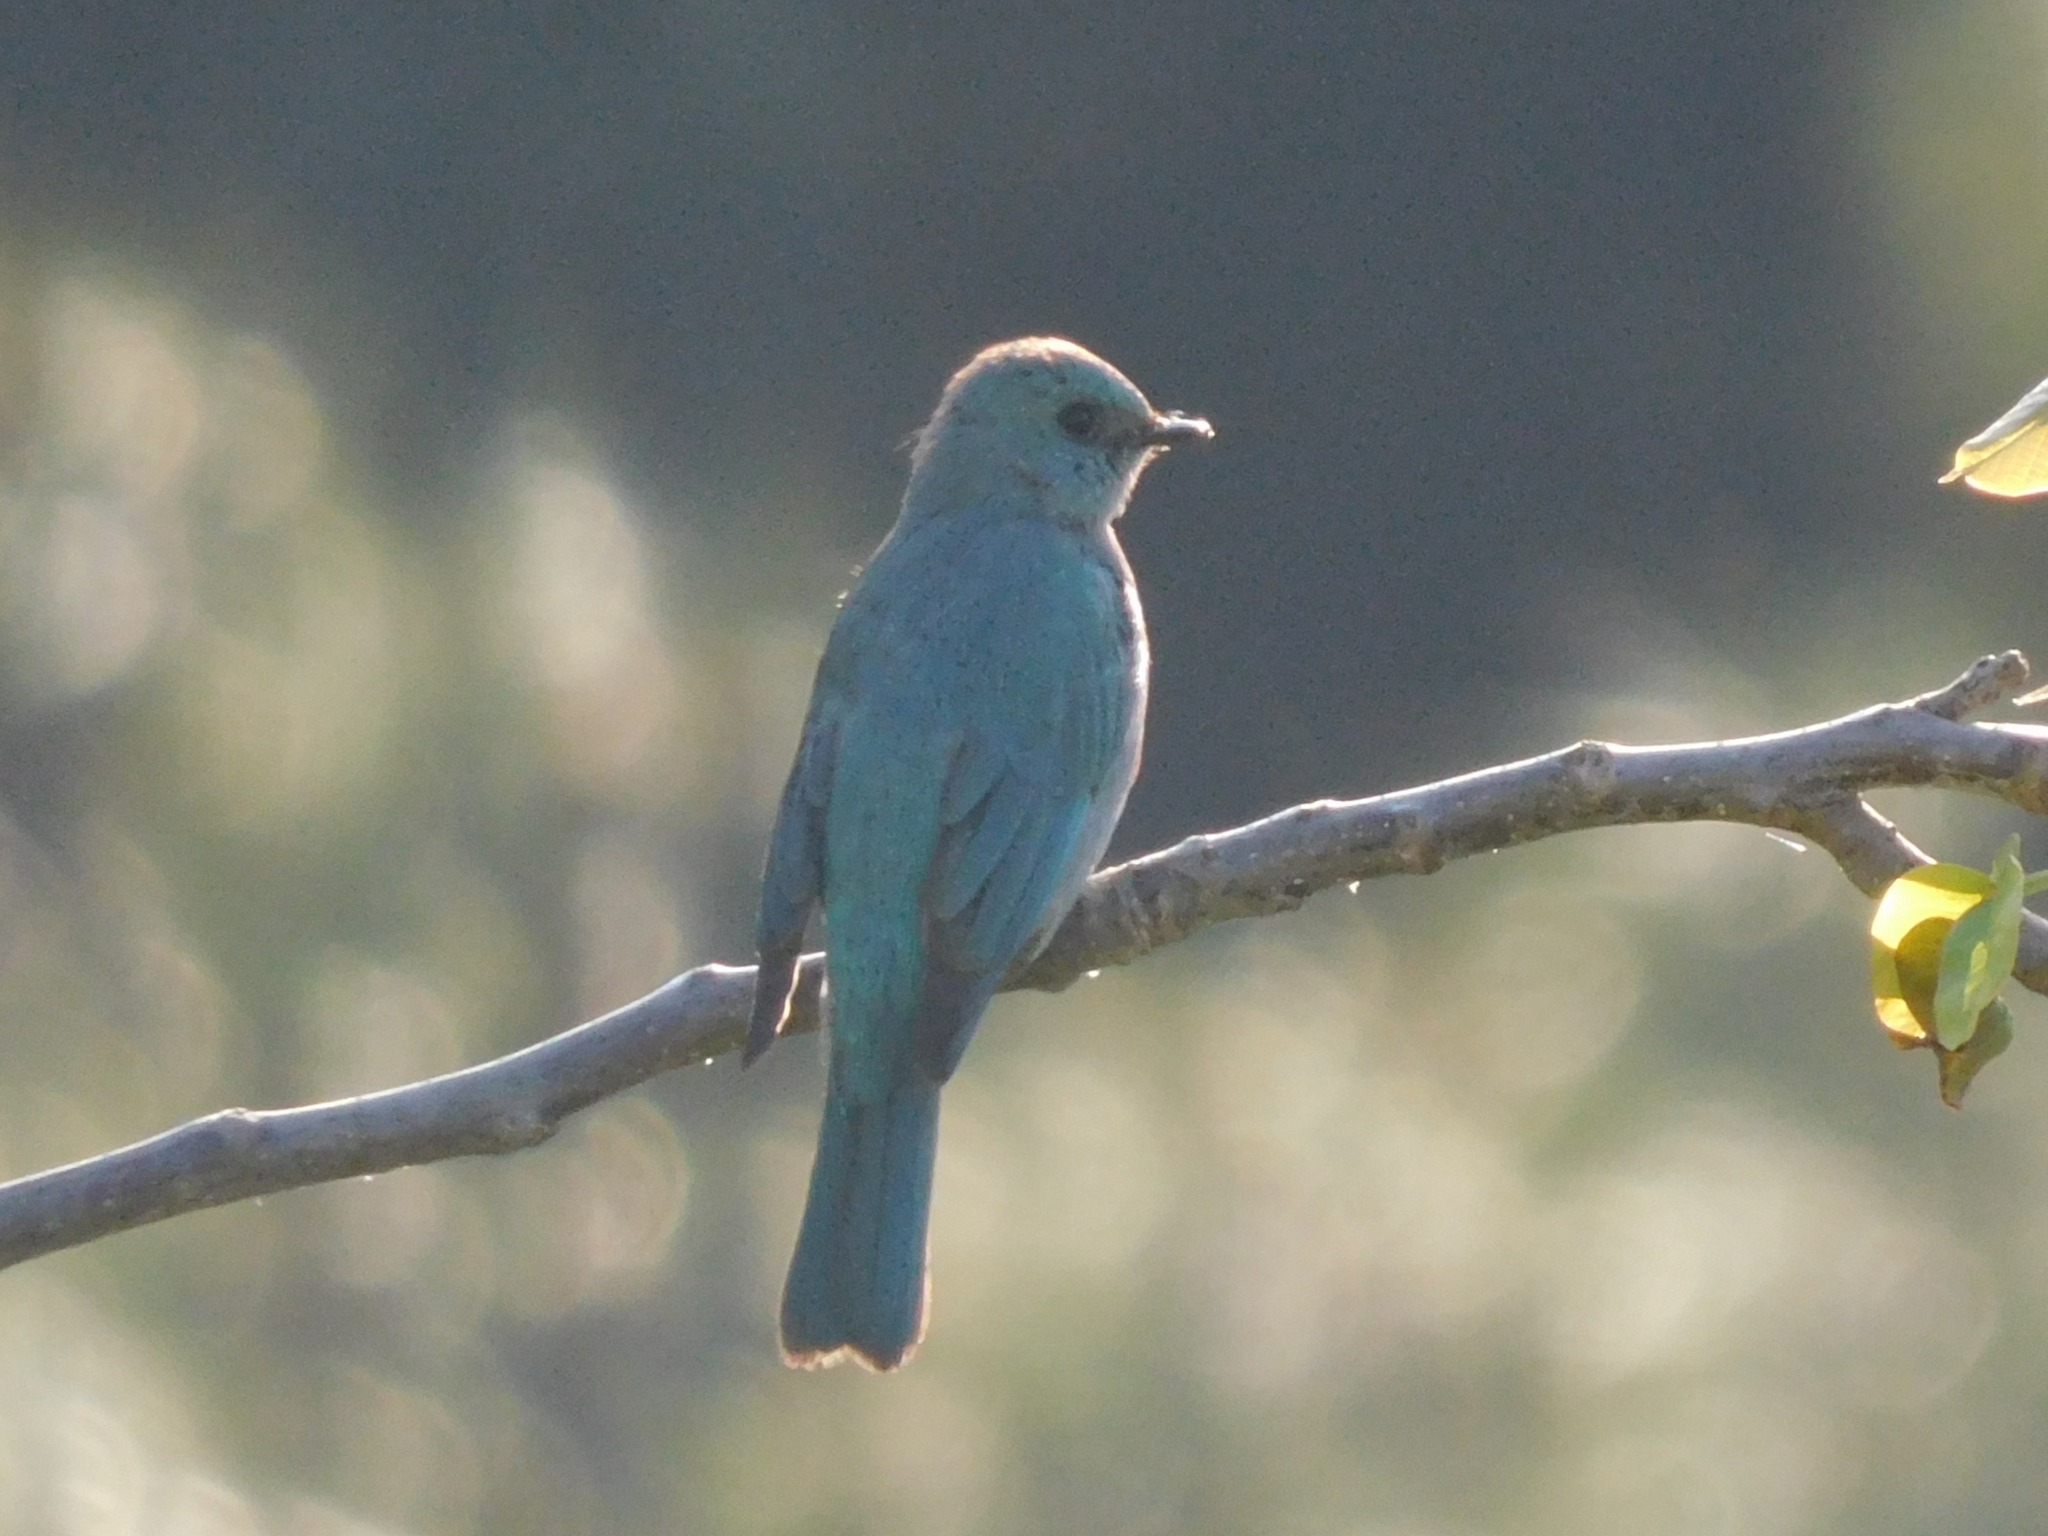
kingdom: Animalia
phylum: Chordata
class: Aves
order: Passeriformes
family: Muscicapidae
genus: Eumyias
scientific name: Eumyias thalassinus
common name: Verditer flycatcher
